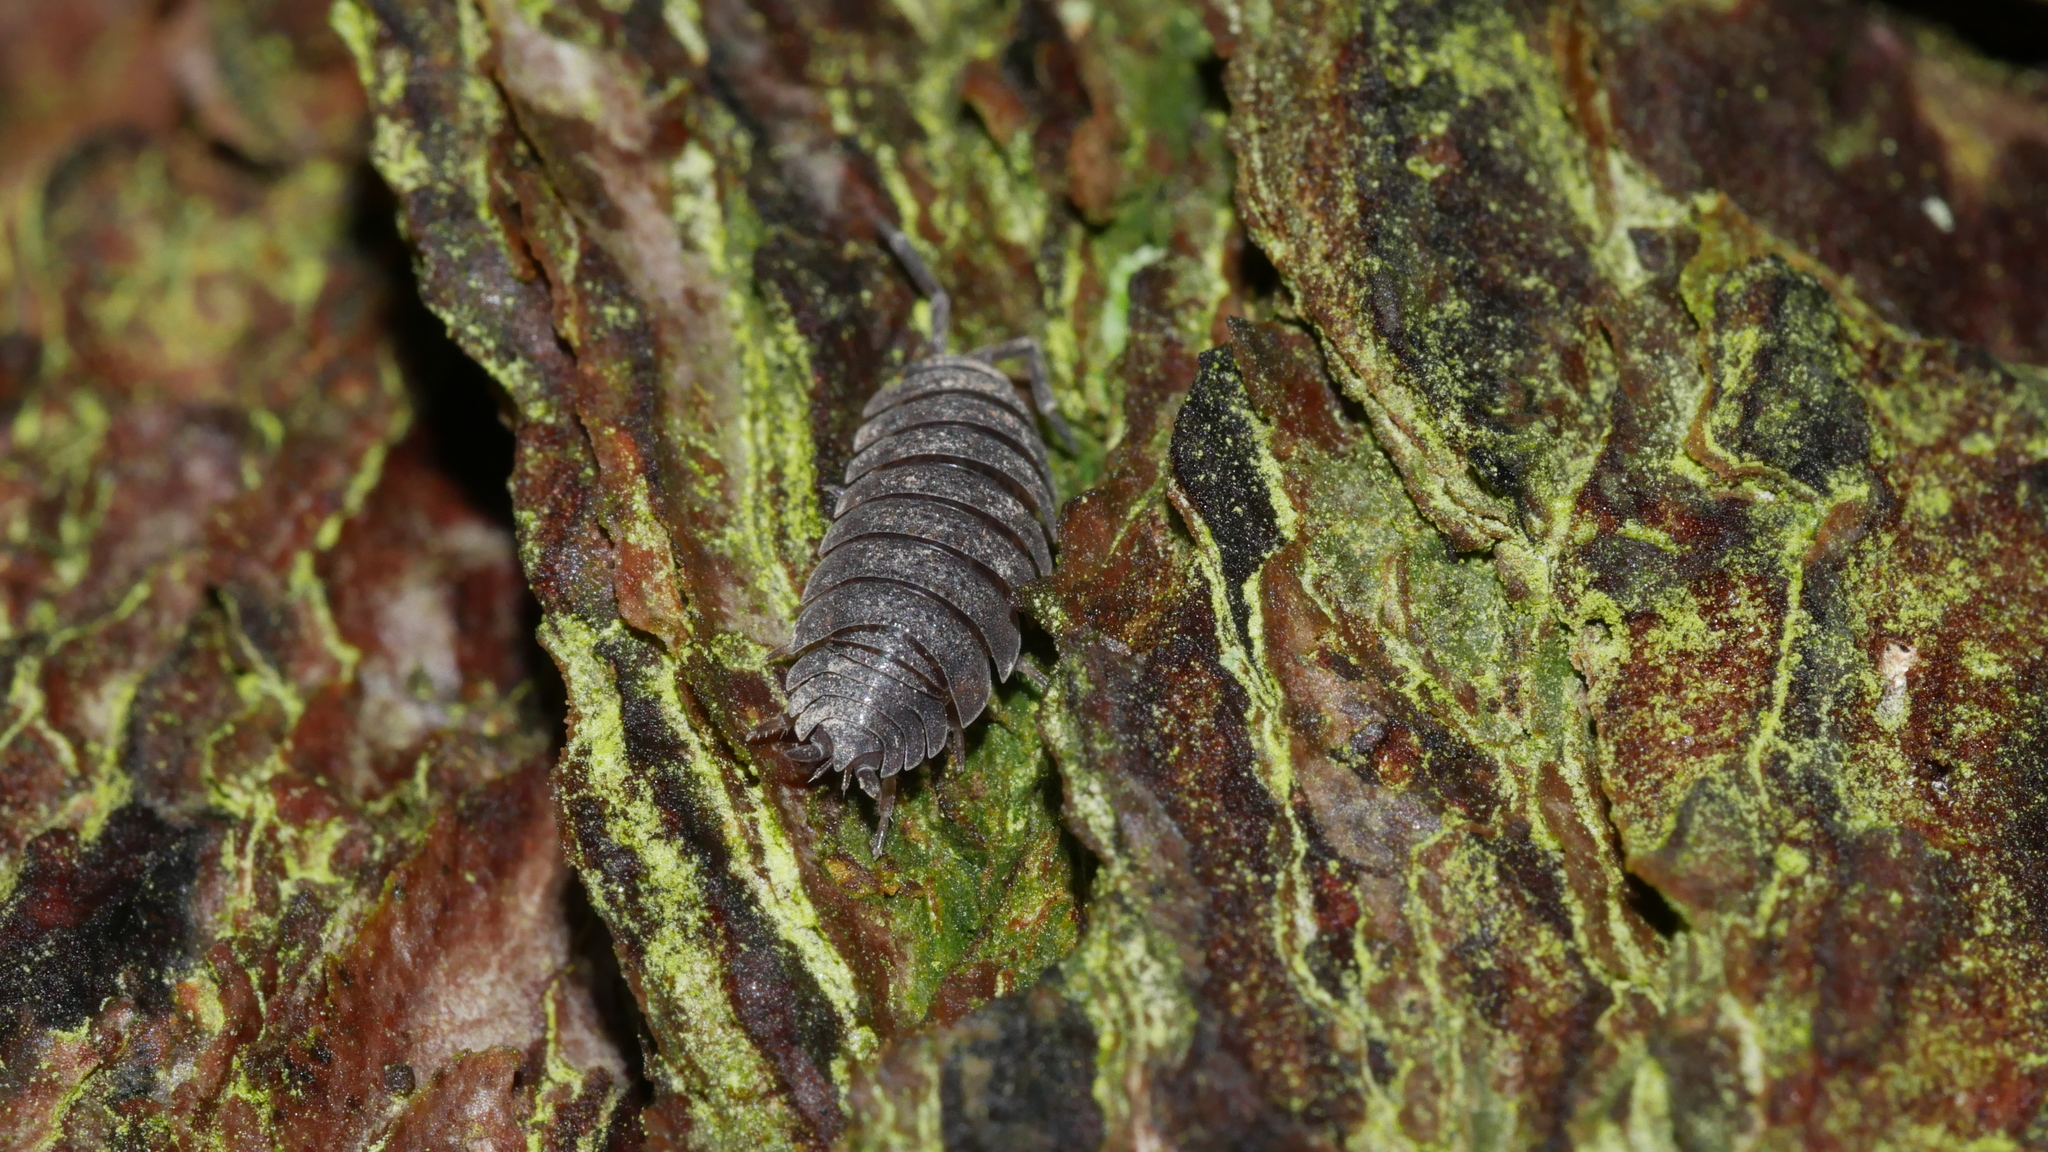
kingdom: Animalia
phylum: Arthropoda
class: Malacostraca
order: Isopoda
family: Porcellionidae
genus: Porcellio
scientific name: Porcellio scaber
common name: Common rough woodlouse
